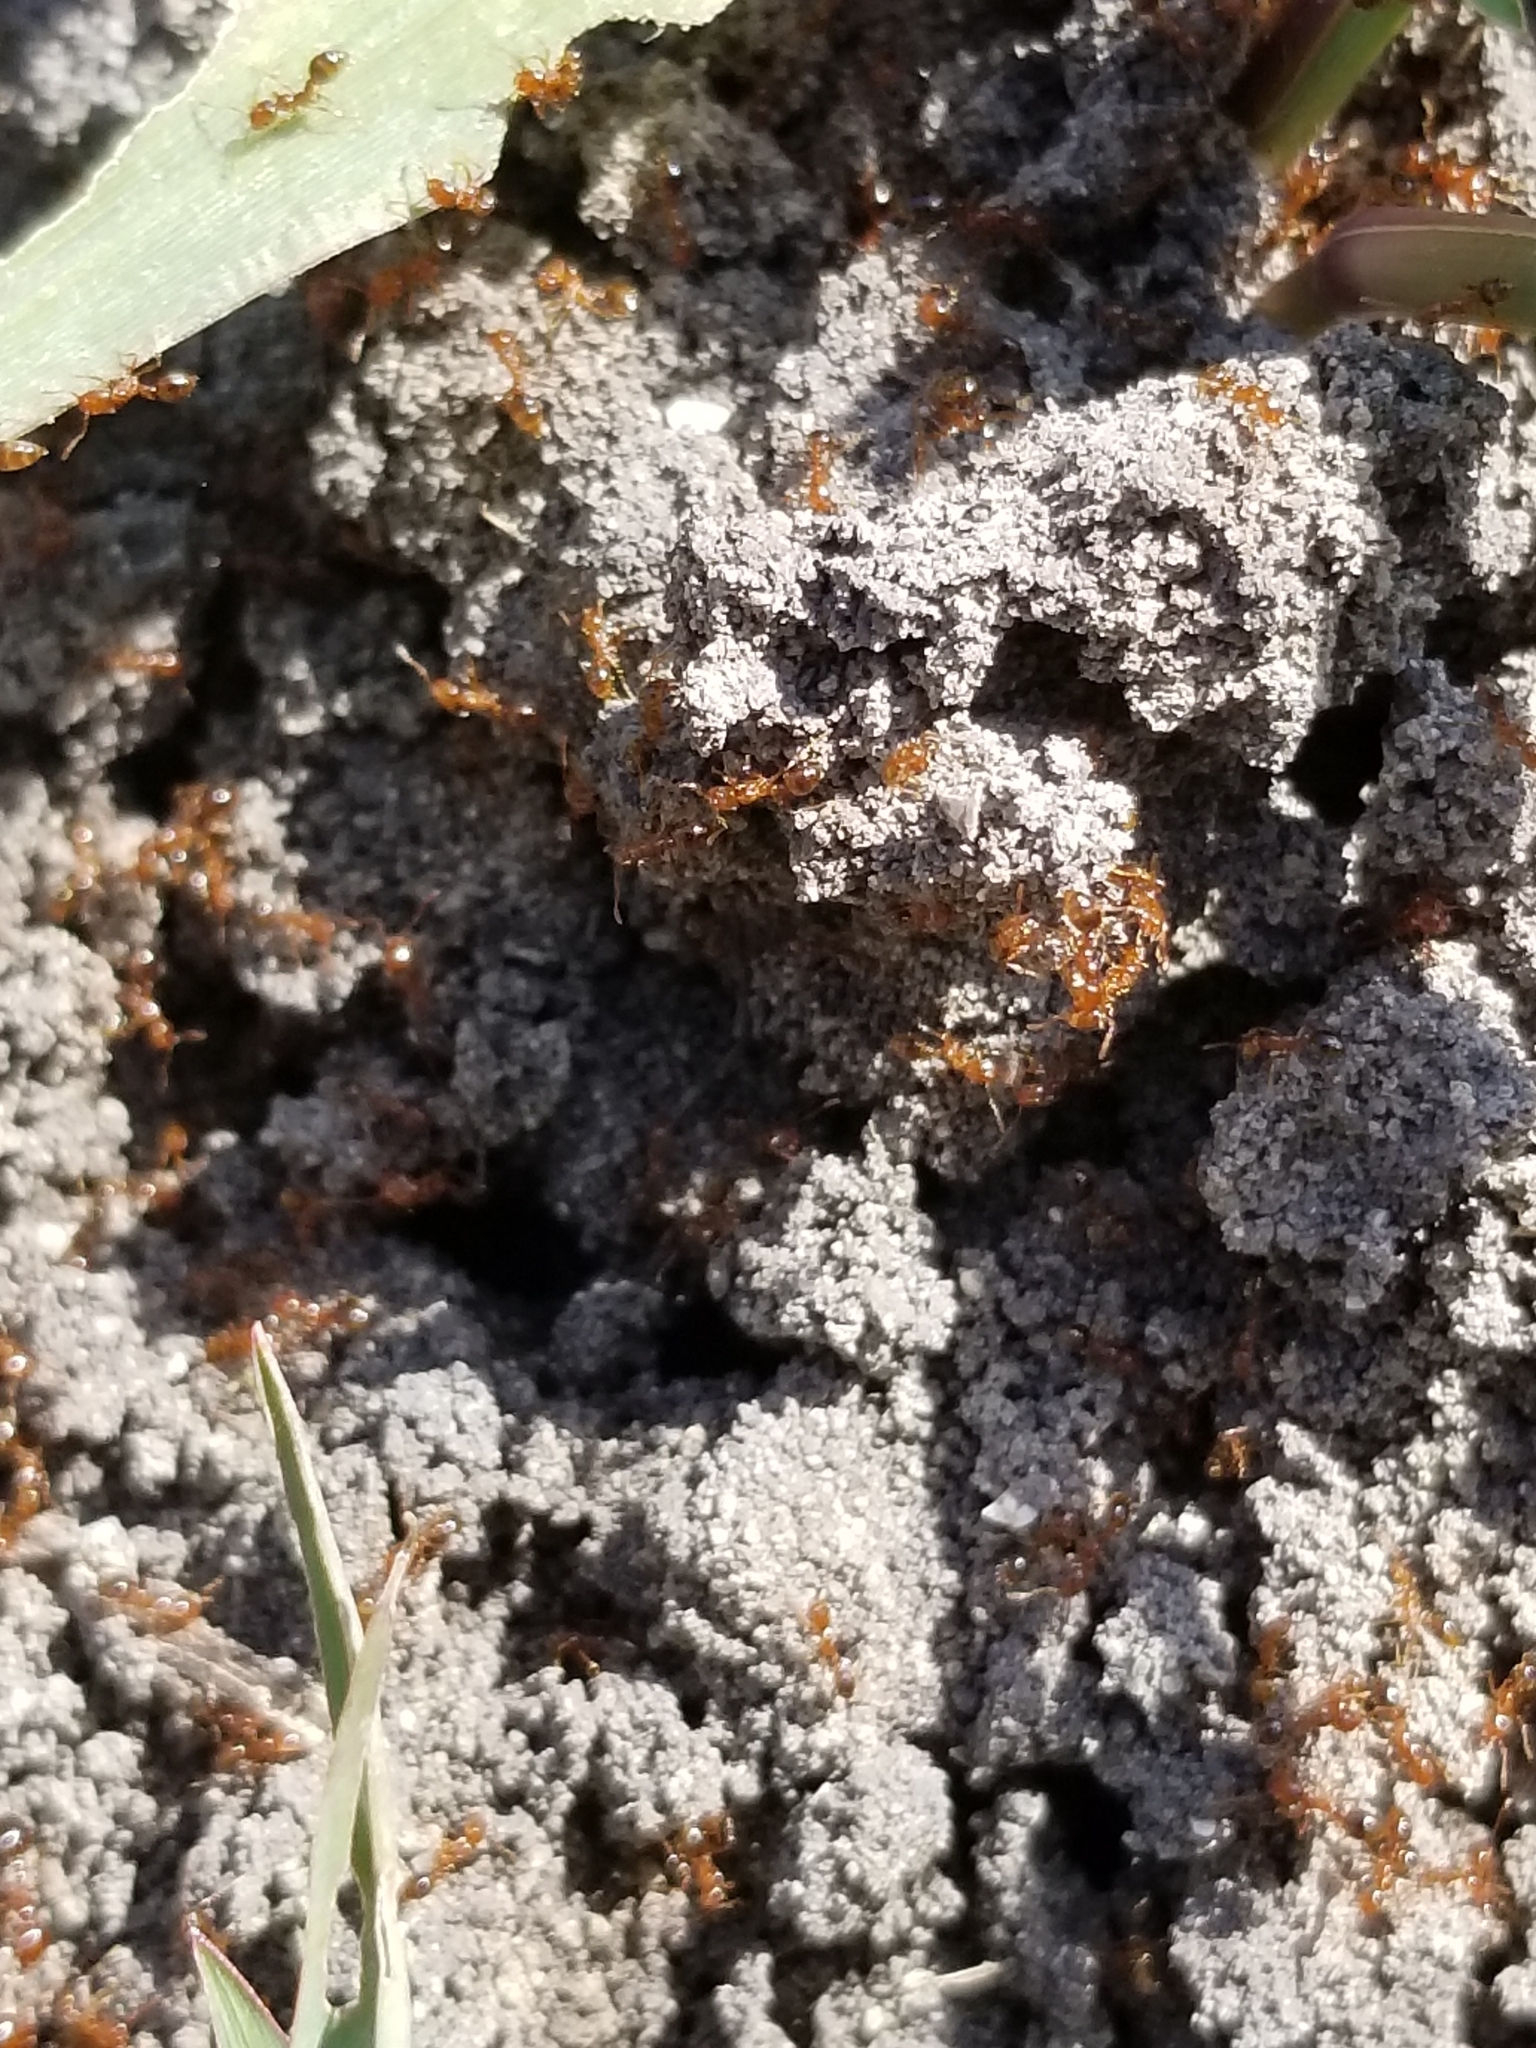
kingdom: Animalia
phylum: Arthropoda
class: Insecta
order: Hymenoptera
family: Formicidae
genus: Solenopsis
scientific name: Solenopsis invicta
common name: Red imported fire ant
